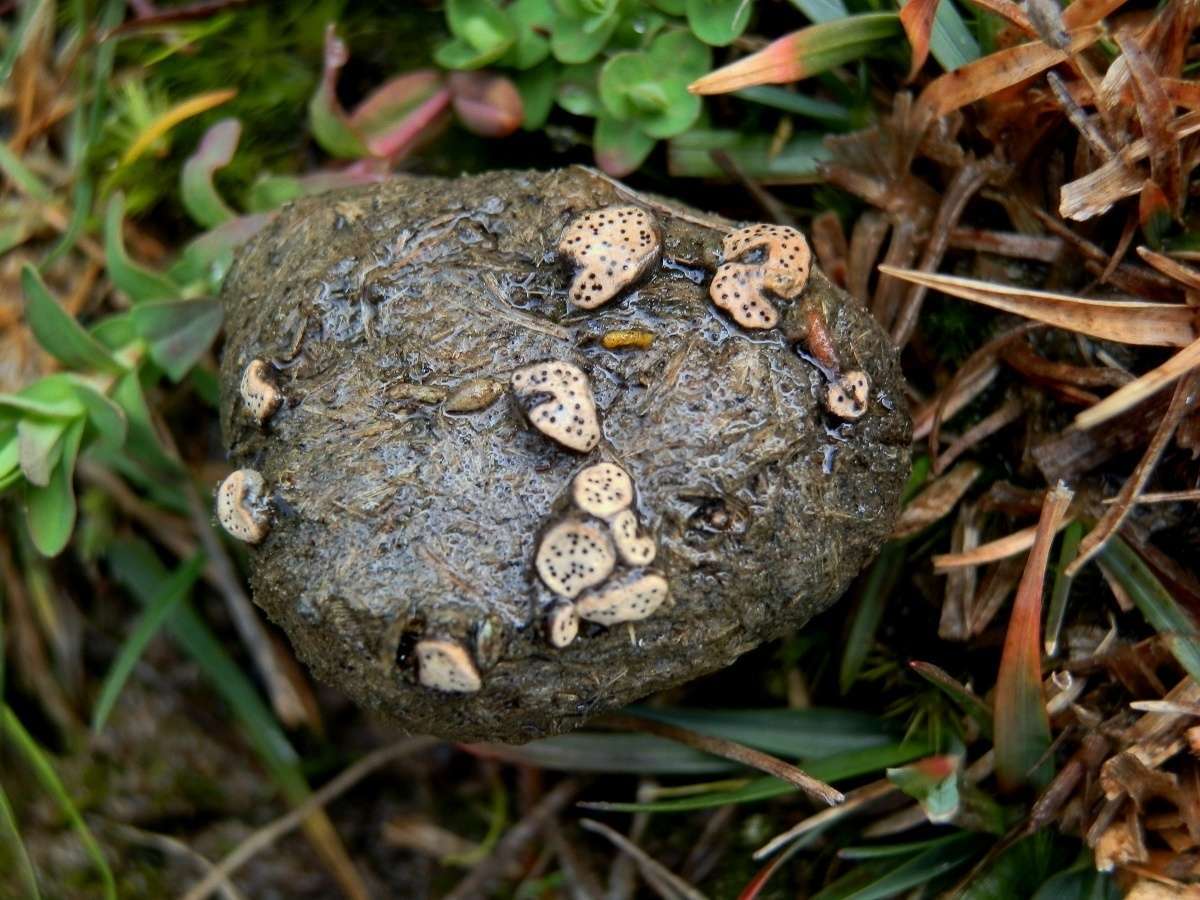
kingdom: Fungi
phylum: Ascomycota
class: Sordariomycetes
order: Xylariales
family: Xylariaceae
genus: Poronia
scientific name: Poronia erici
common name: Dung button
